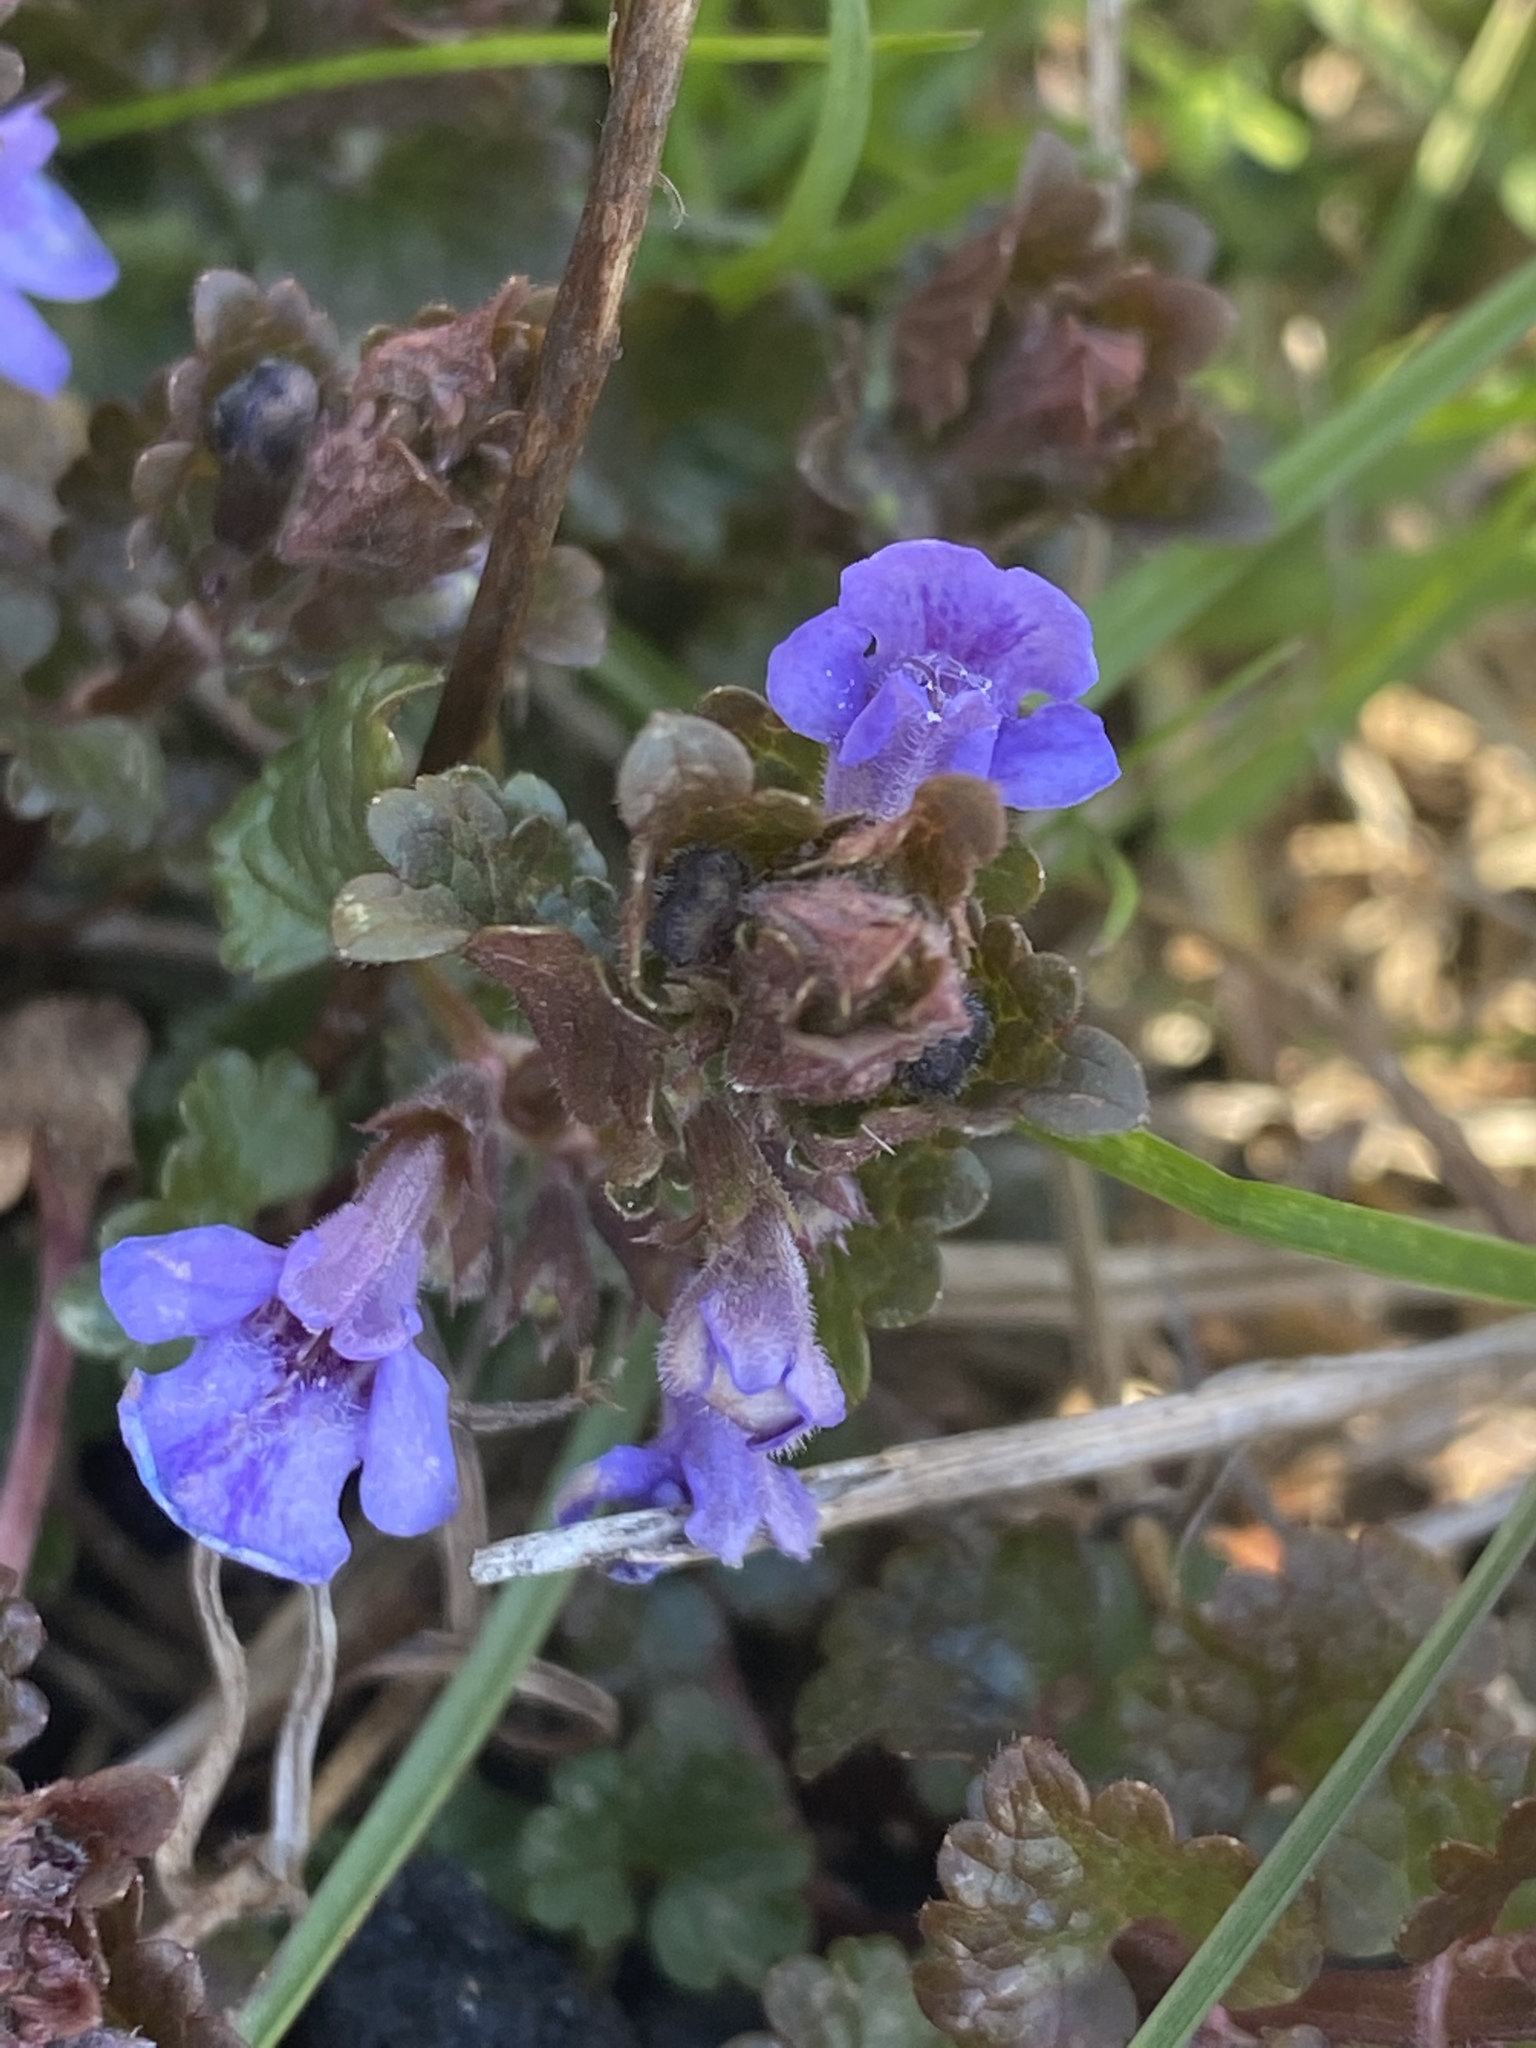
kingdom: Plantae
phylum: Tracheophyta
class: Magnoliopsida
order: Lamiales
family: Lamiaceae
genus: Glechoma
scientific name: Glechoma hederacea
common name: Ground ivy
